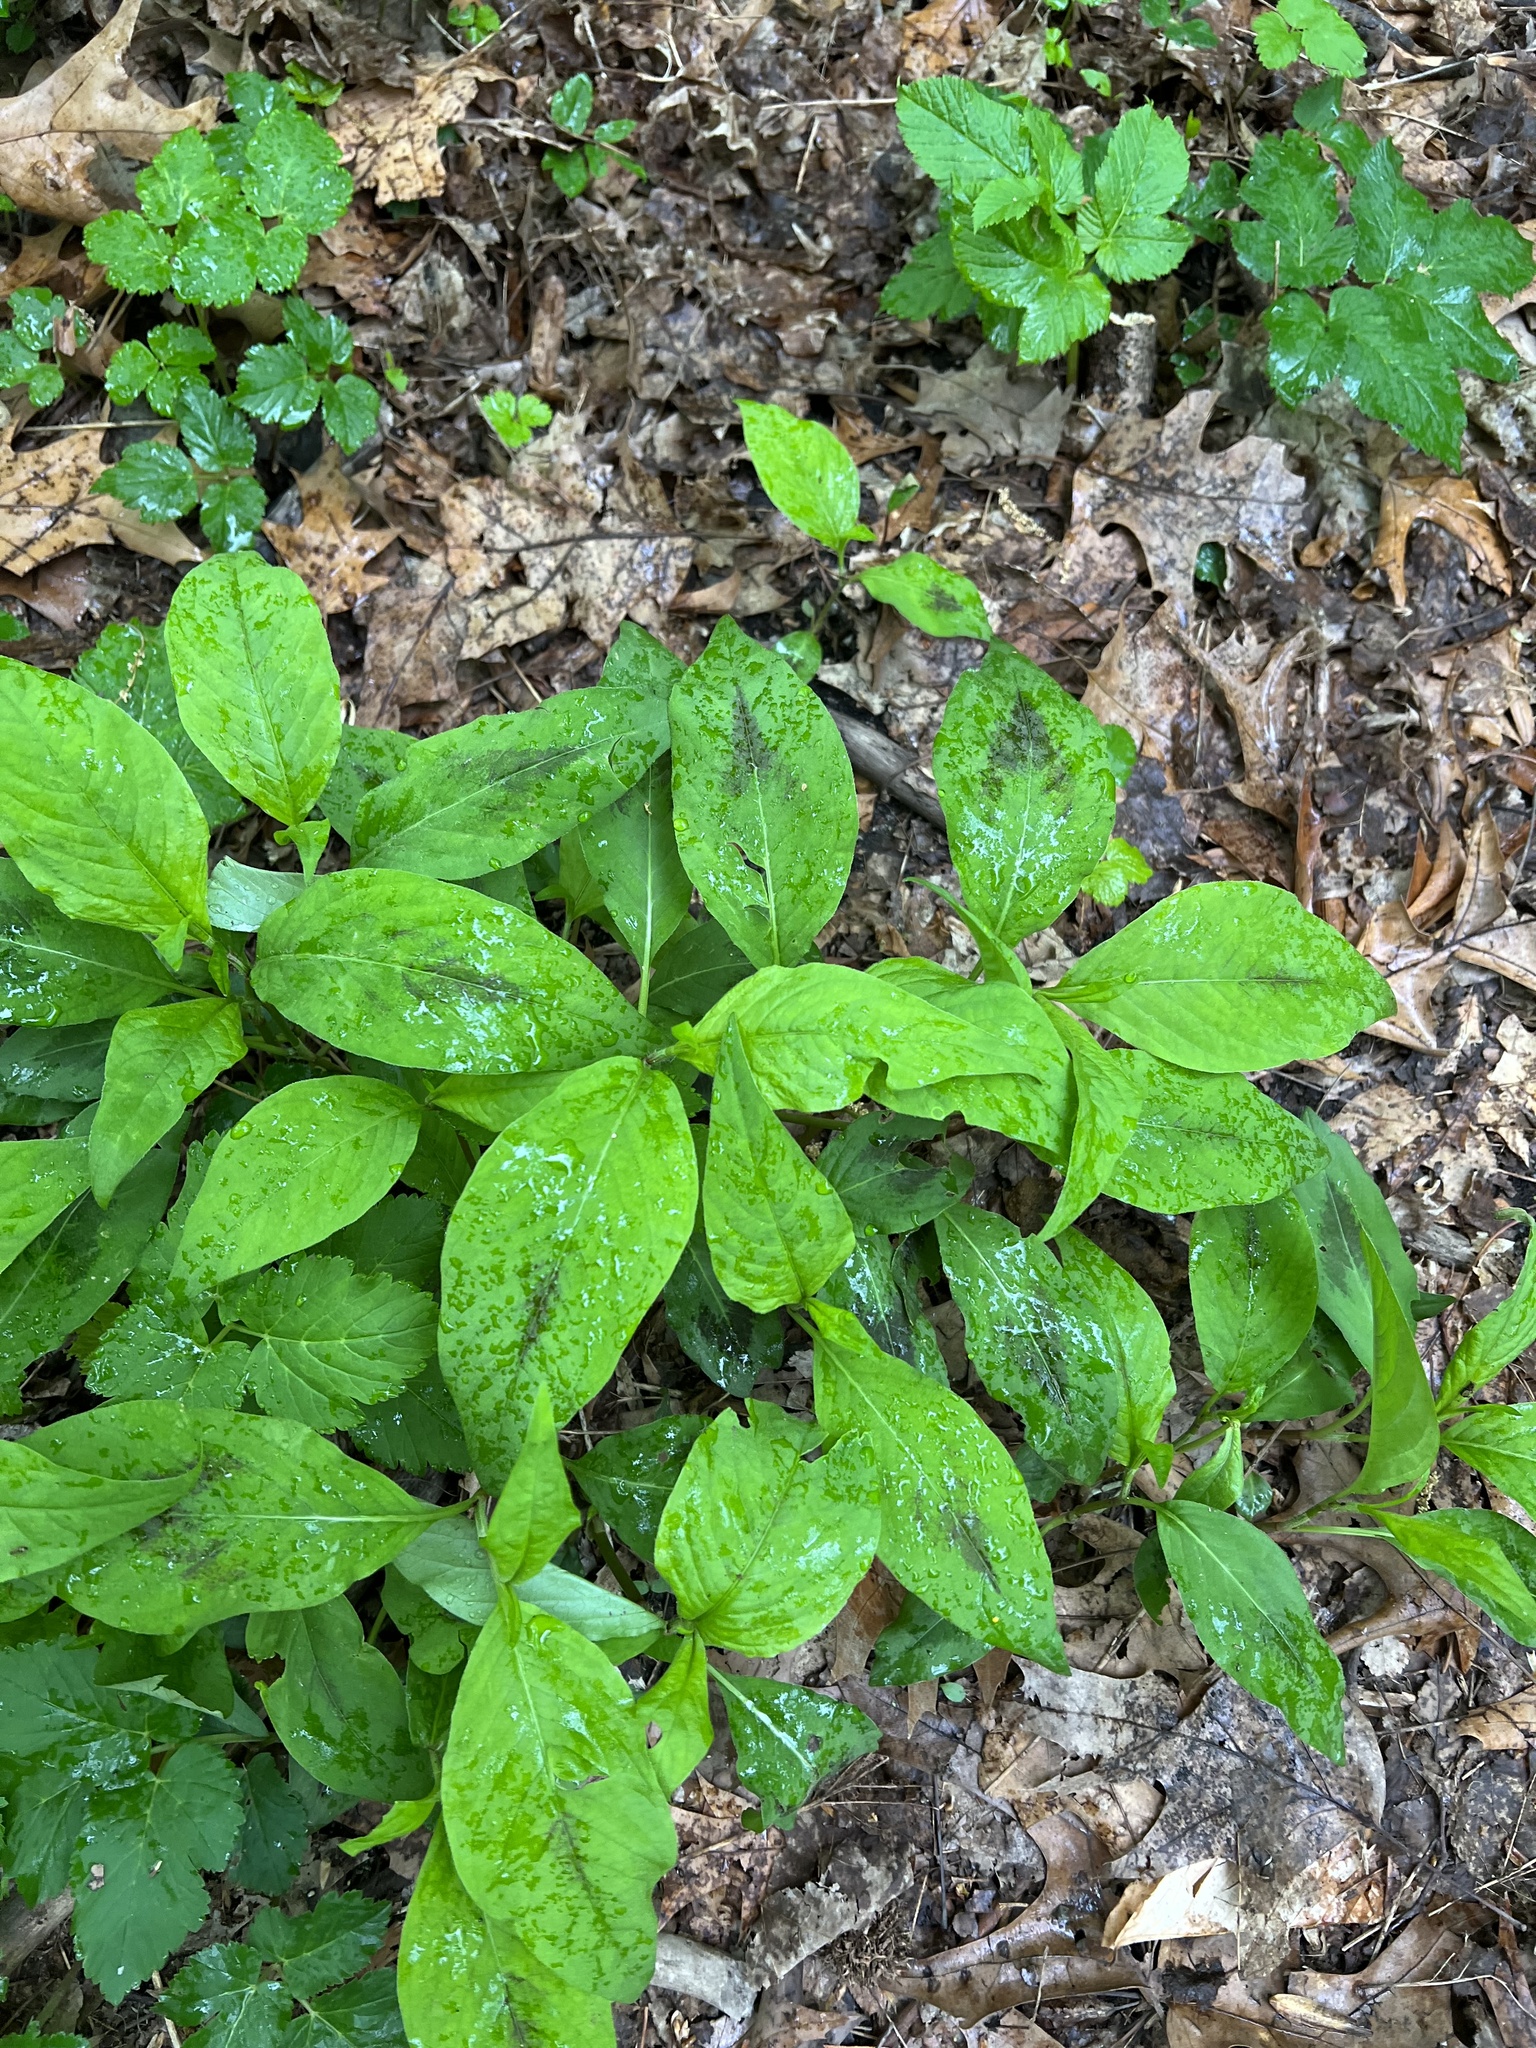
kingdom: Plantae
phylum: Tracheophyta
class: Magnoliopsida
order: Caryophyllales
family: Polygonaceae
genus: Persicaria
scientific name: Persicaria virginiana
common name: Jumpseed
